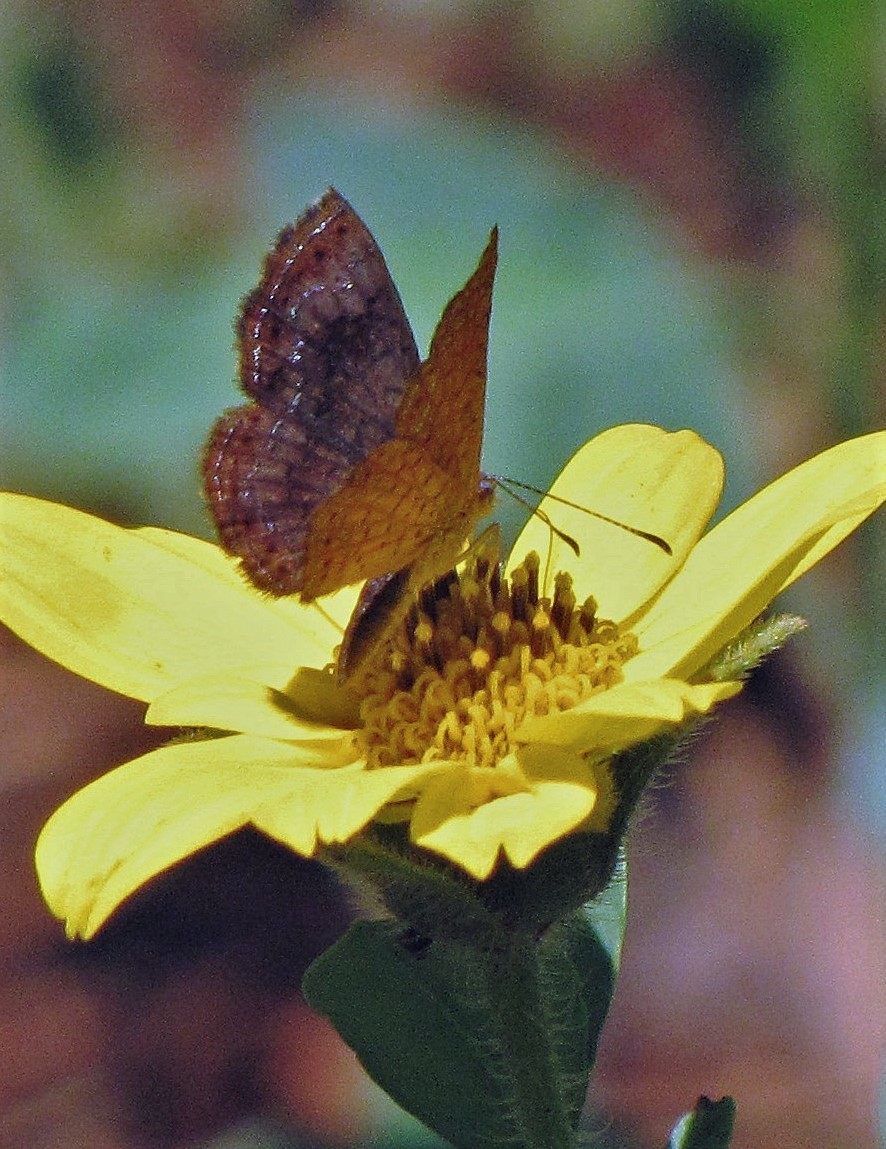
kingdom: Animalia
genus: Calephelis
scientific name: Calephelis aymaran
